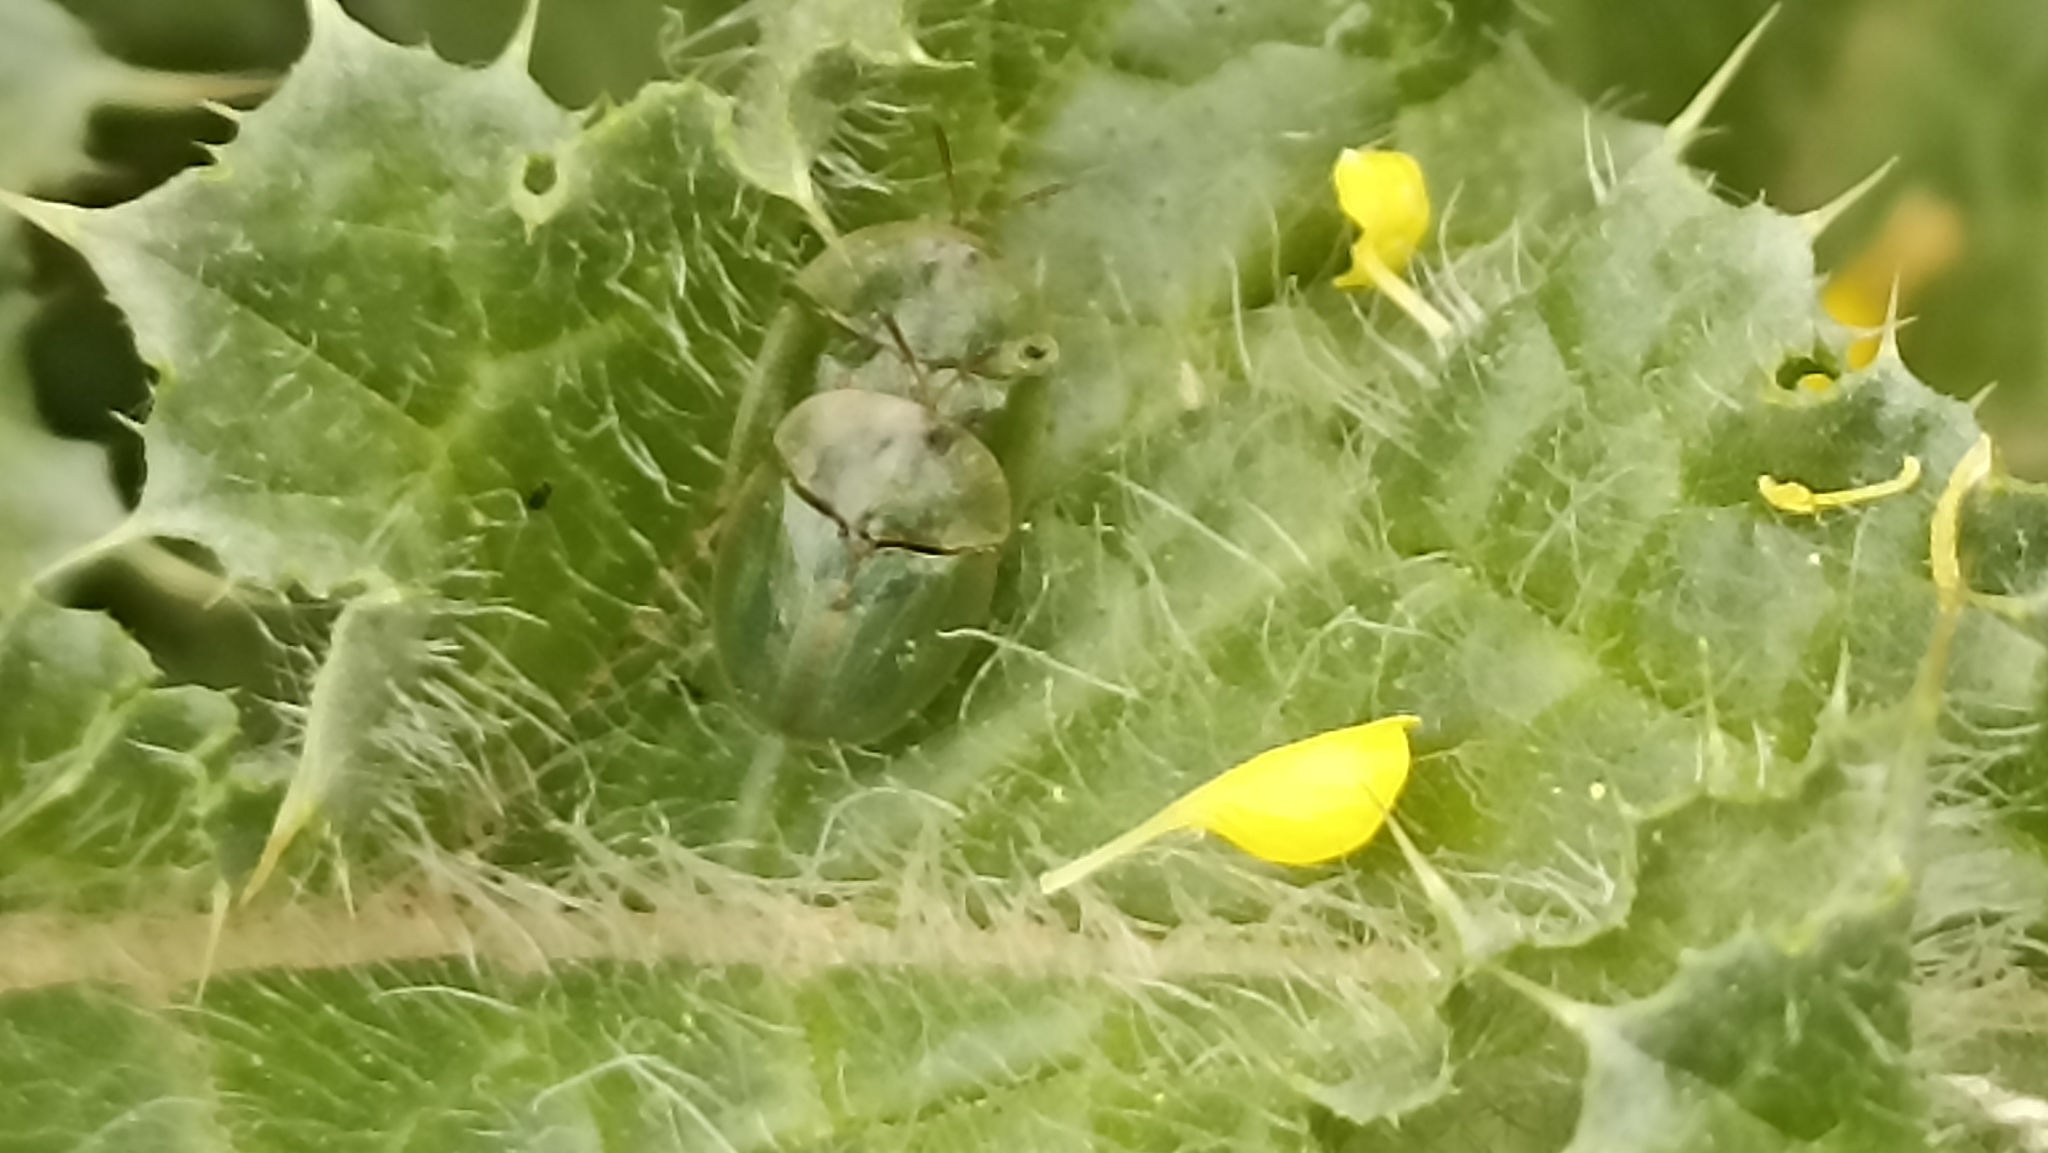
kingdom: Animalia
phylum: Arthropoda
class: Insecta
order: Coleoptera
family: Chrysomelidae
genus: Cassida
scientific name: Cassida deflorata
